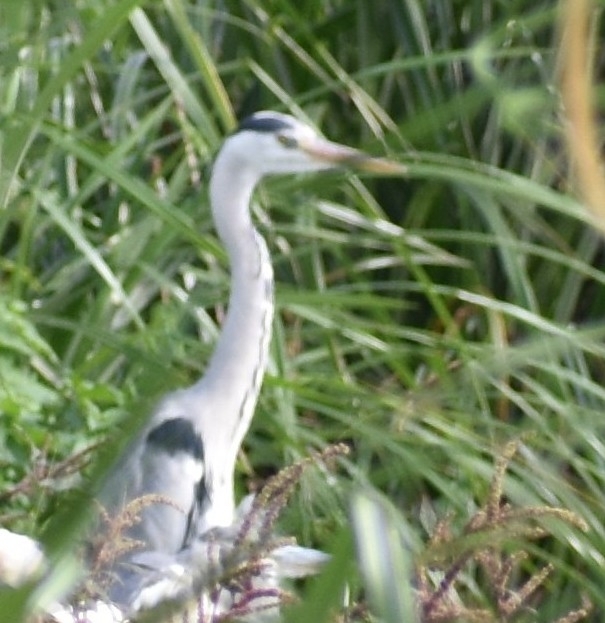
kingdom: Animalia
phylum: Chordata
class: Aves
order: Pelecaniformes
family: Ardeidae
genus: Ardea
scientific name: Ardea cinerea
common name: Grey heron
